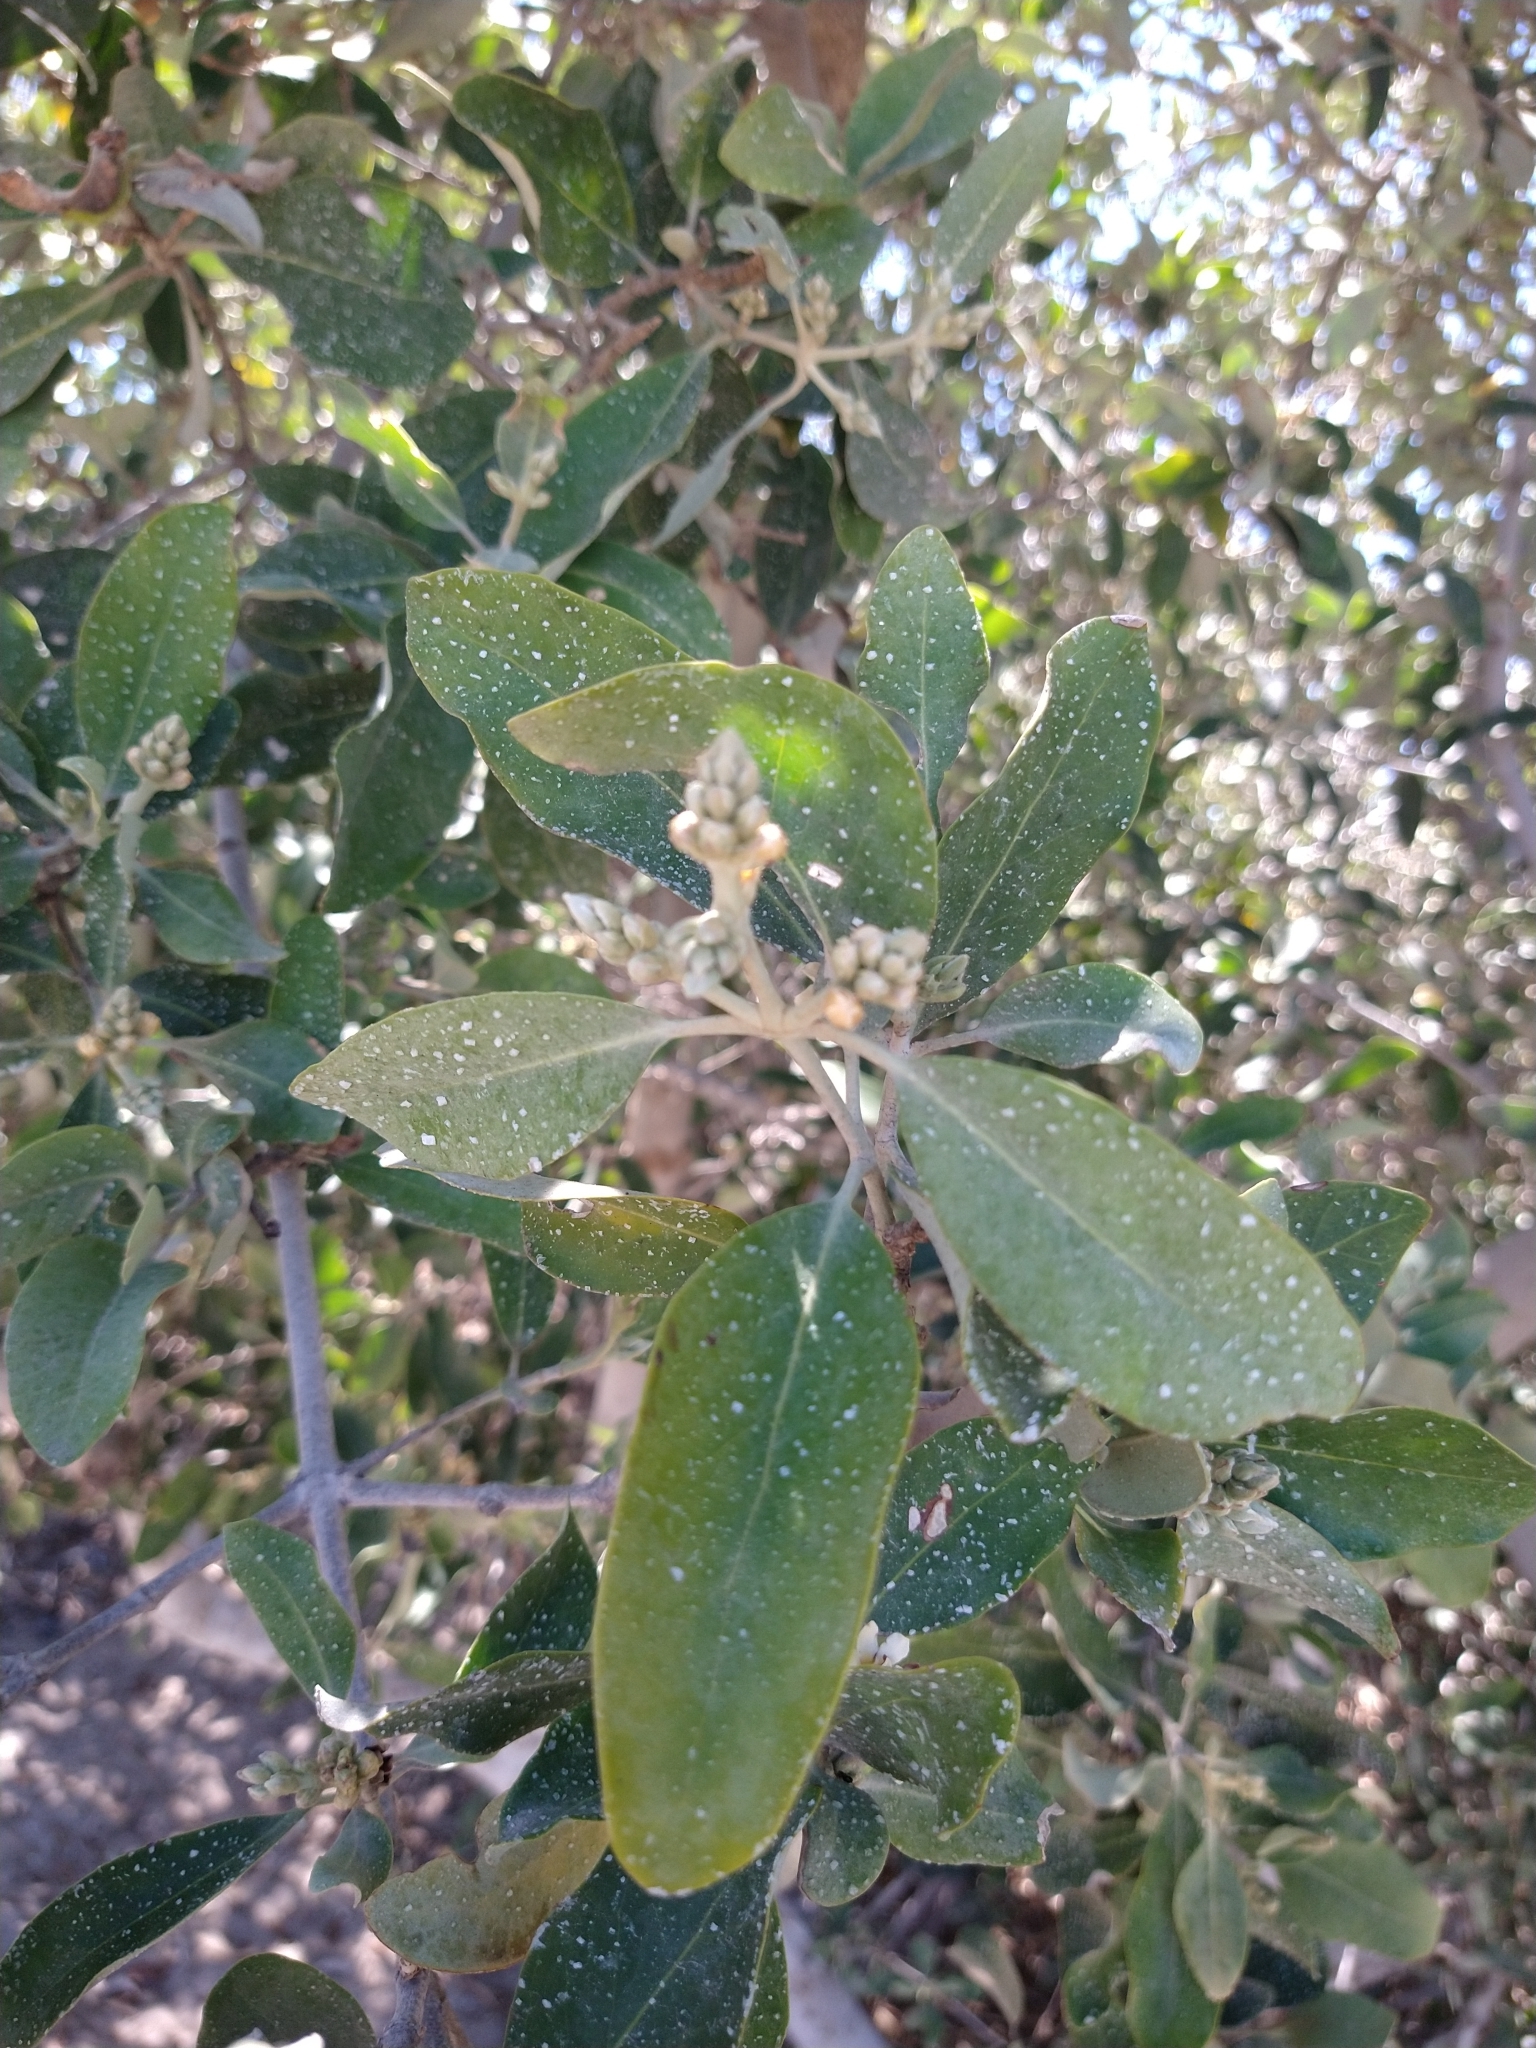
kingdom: Plantae
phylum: Tracheophyta
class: Magnoliopsida
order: Lamiales
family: Acanthaceae
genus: Avicennia
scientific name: Avicennia germinans
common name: Black mangrove
